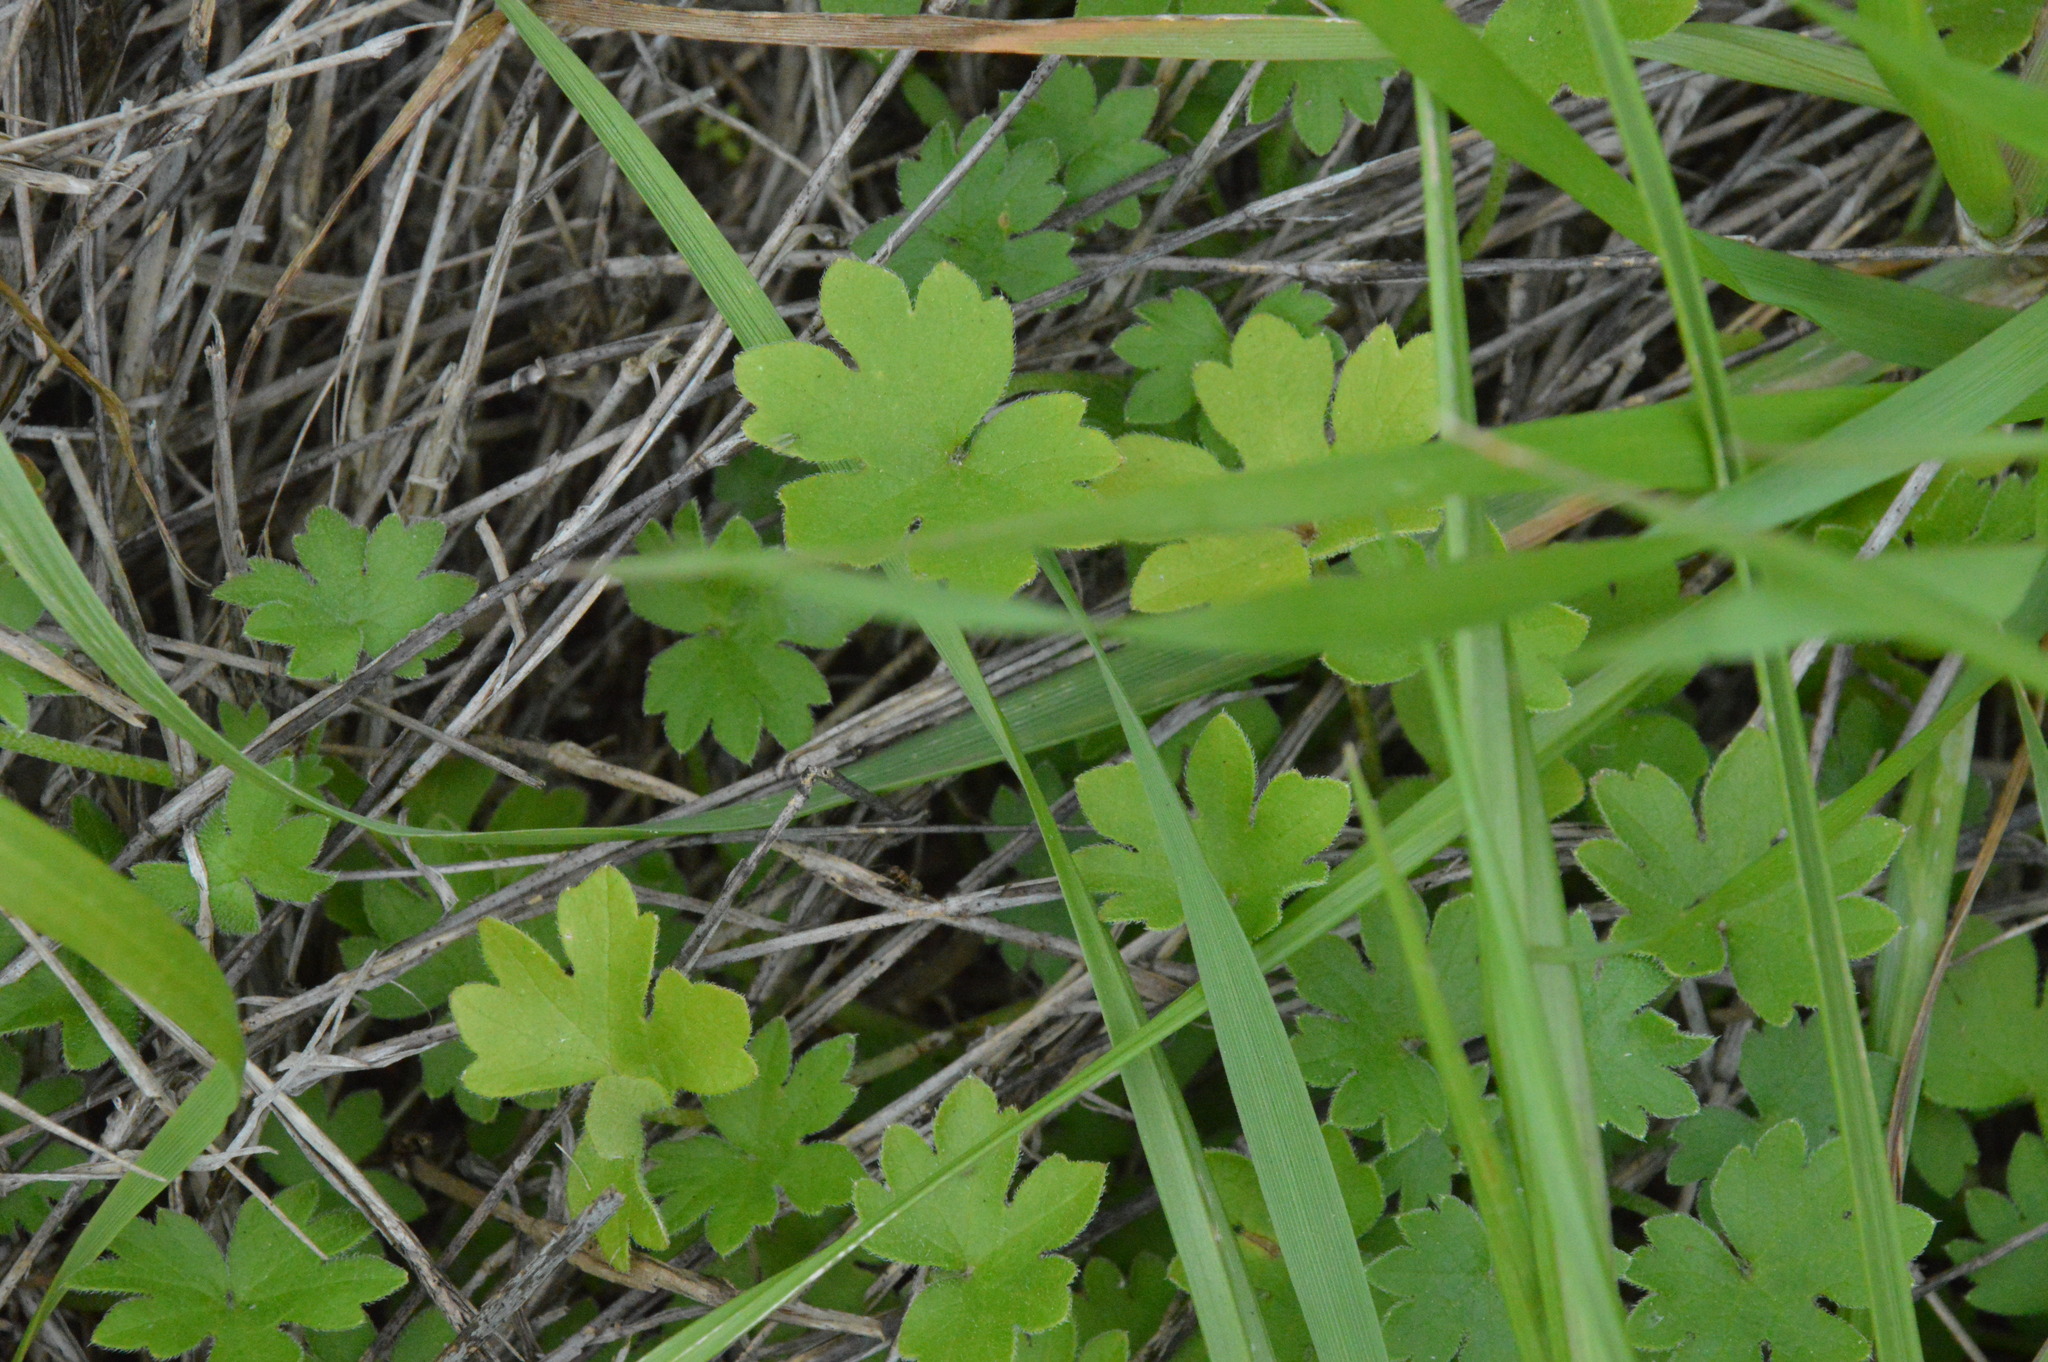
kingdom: Plantae
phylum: Tracheophyta
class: Magnoliopsida
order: Apiales
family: Apiaceae
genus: Bowlesia
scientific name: Bowlesia incana
